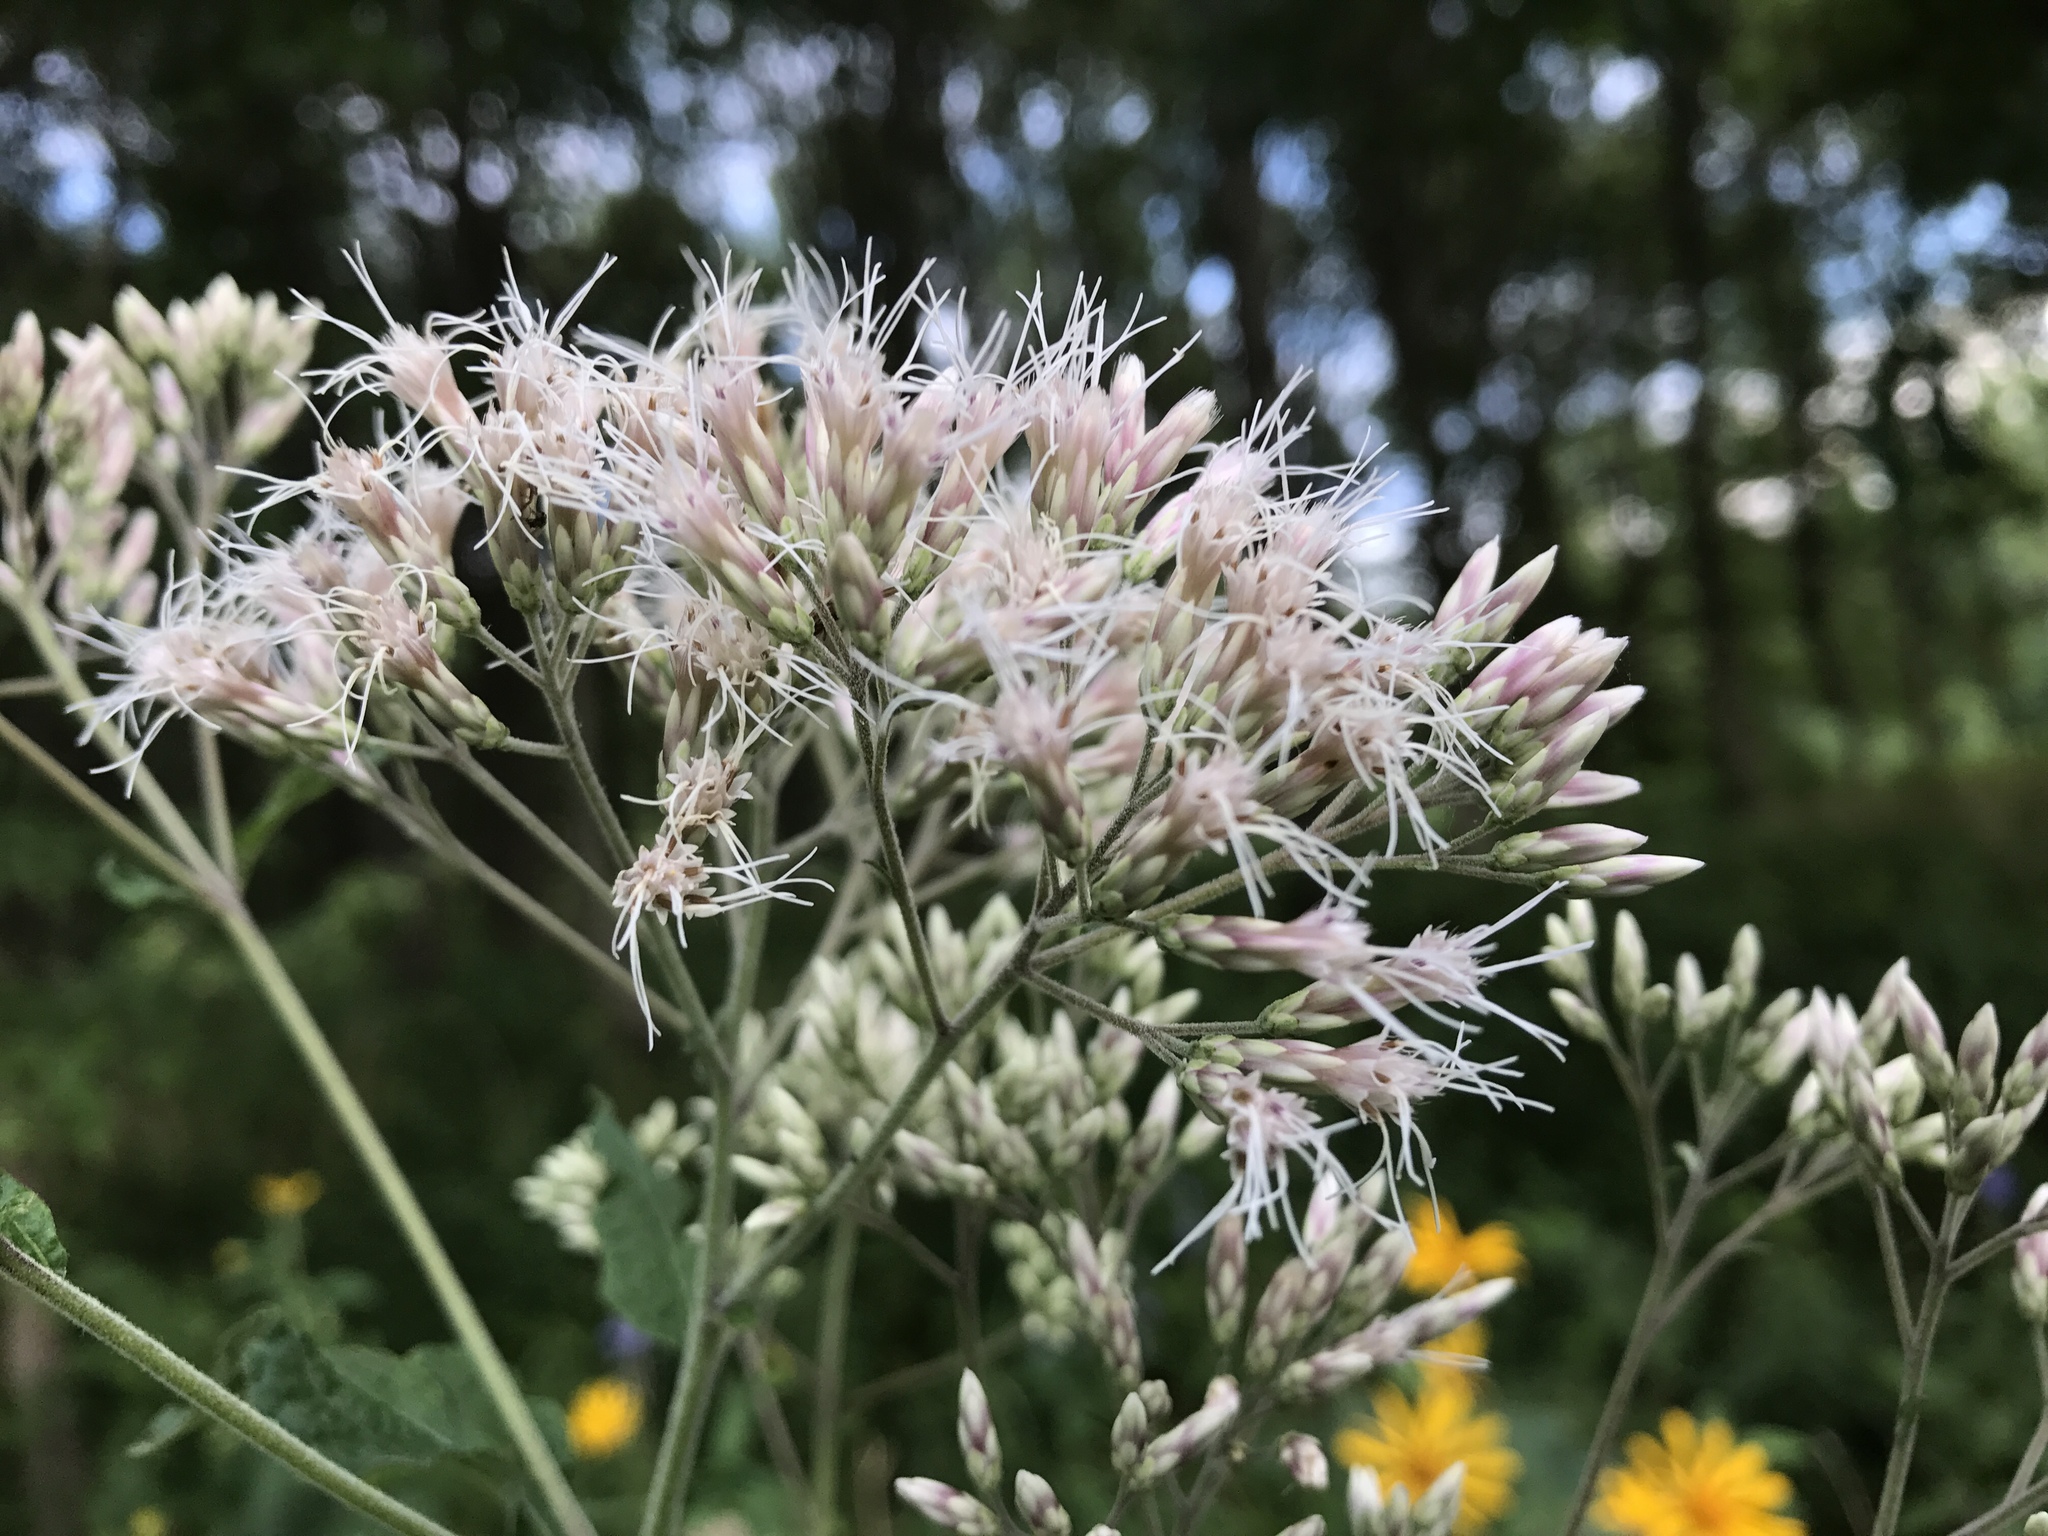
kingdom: Plantae
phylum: Tracheophyta
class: Magnoliopsida
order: Asterales
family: Asteraceae
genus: Eutrochium
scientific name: Eutrochium purpureum
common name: Gravelroot
